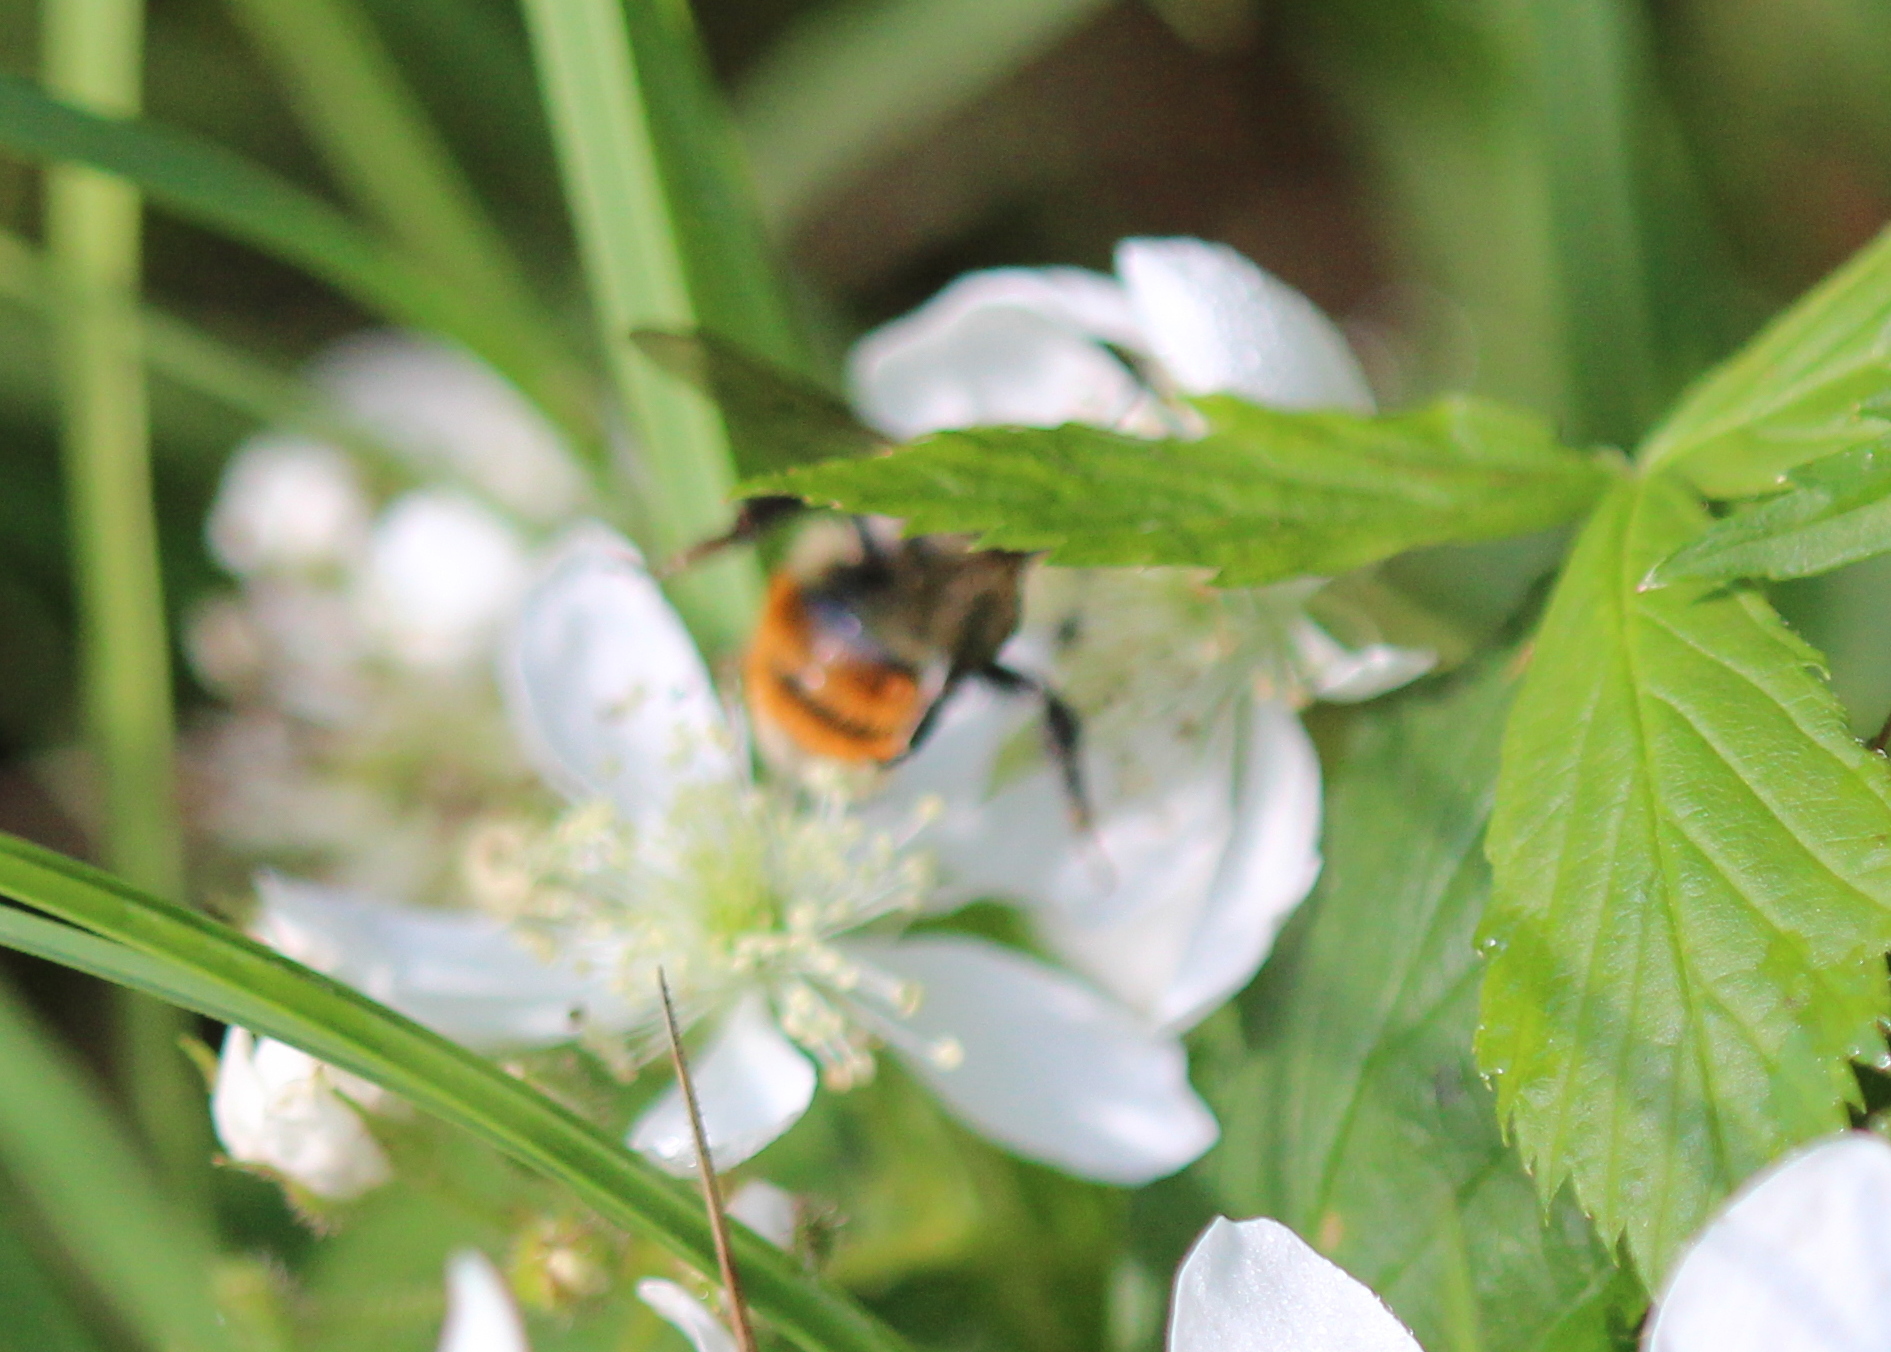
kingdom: Animalia
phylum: Arthropoda
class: Insecta
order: Hymenoptera
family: Apidae
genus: Bombus
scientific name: Bombus ternarius
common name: Tri-colored bumble bee
